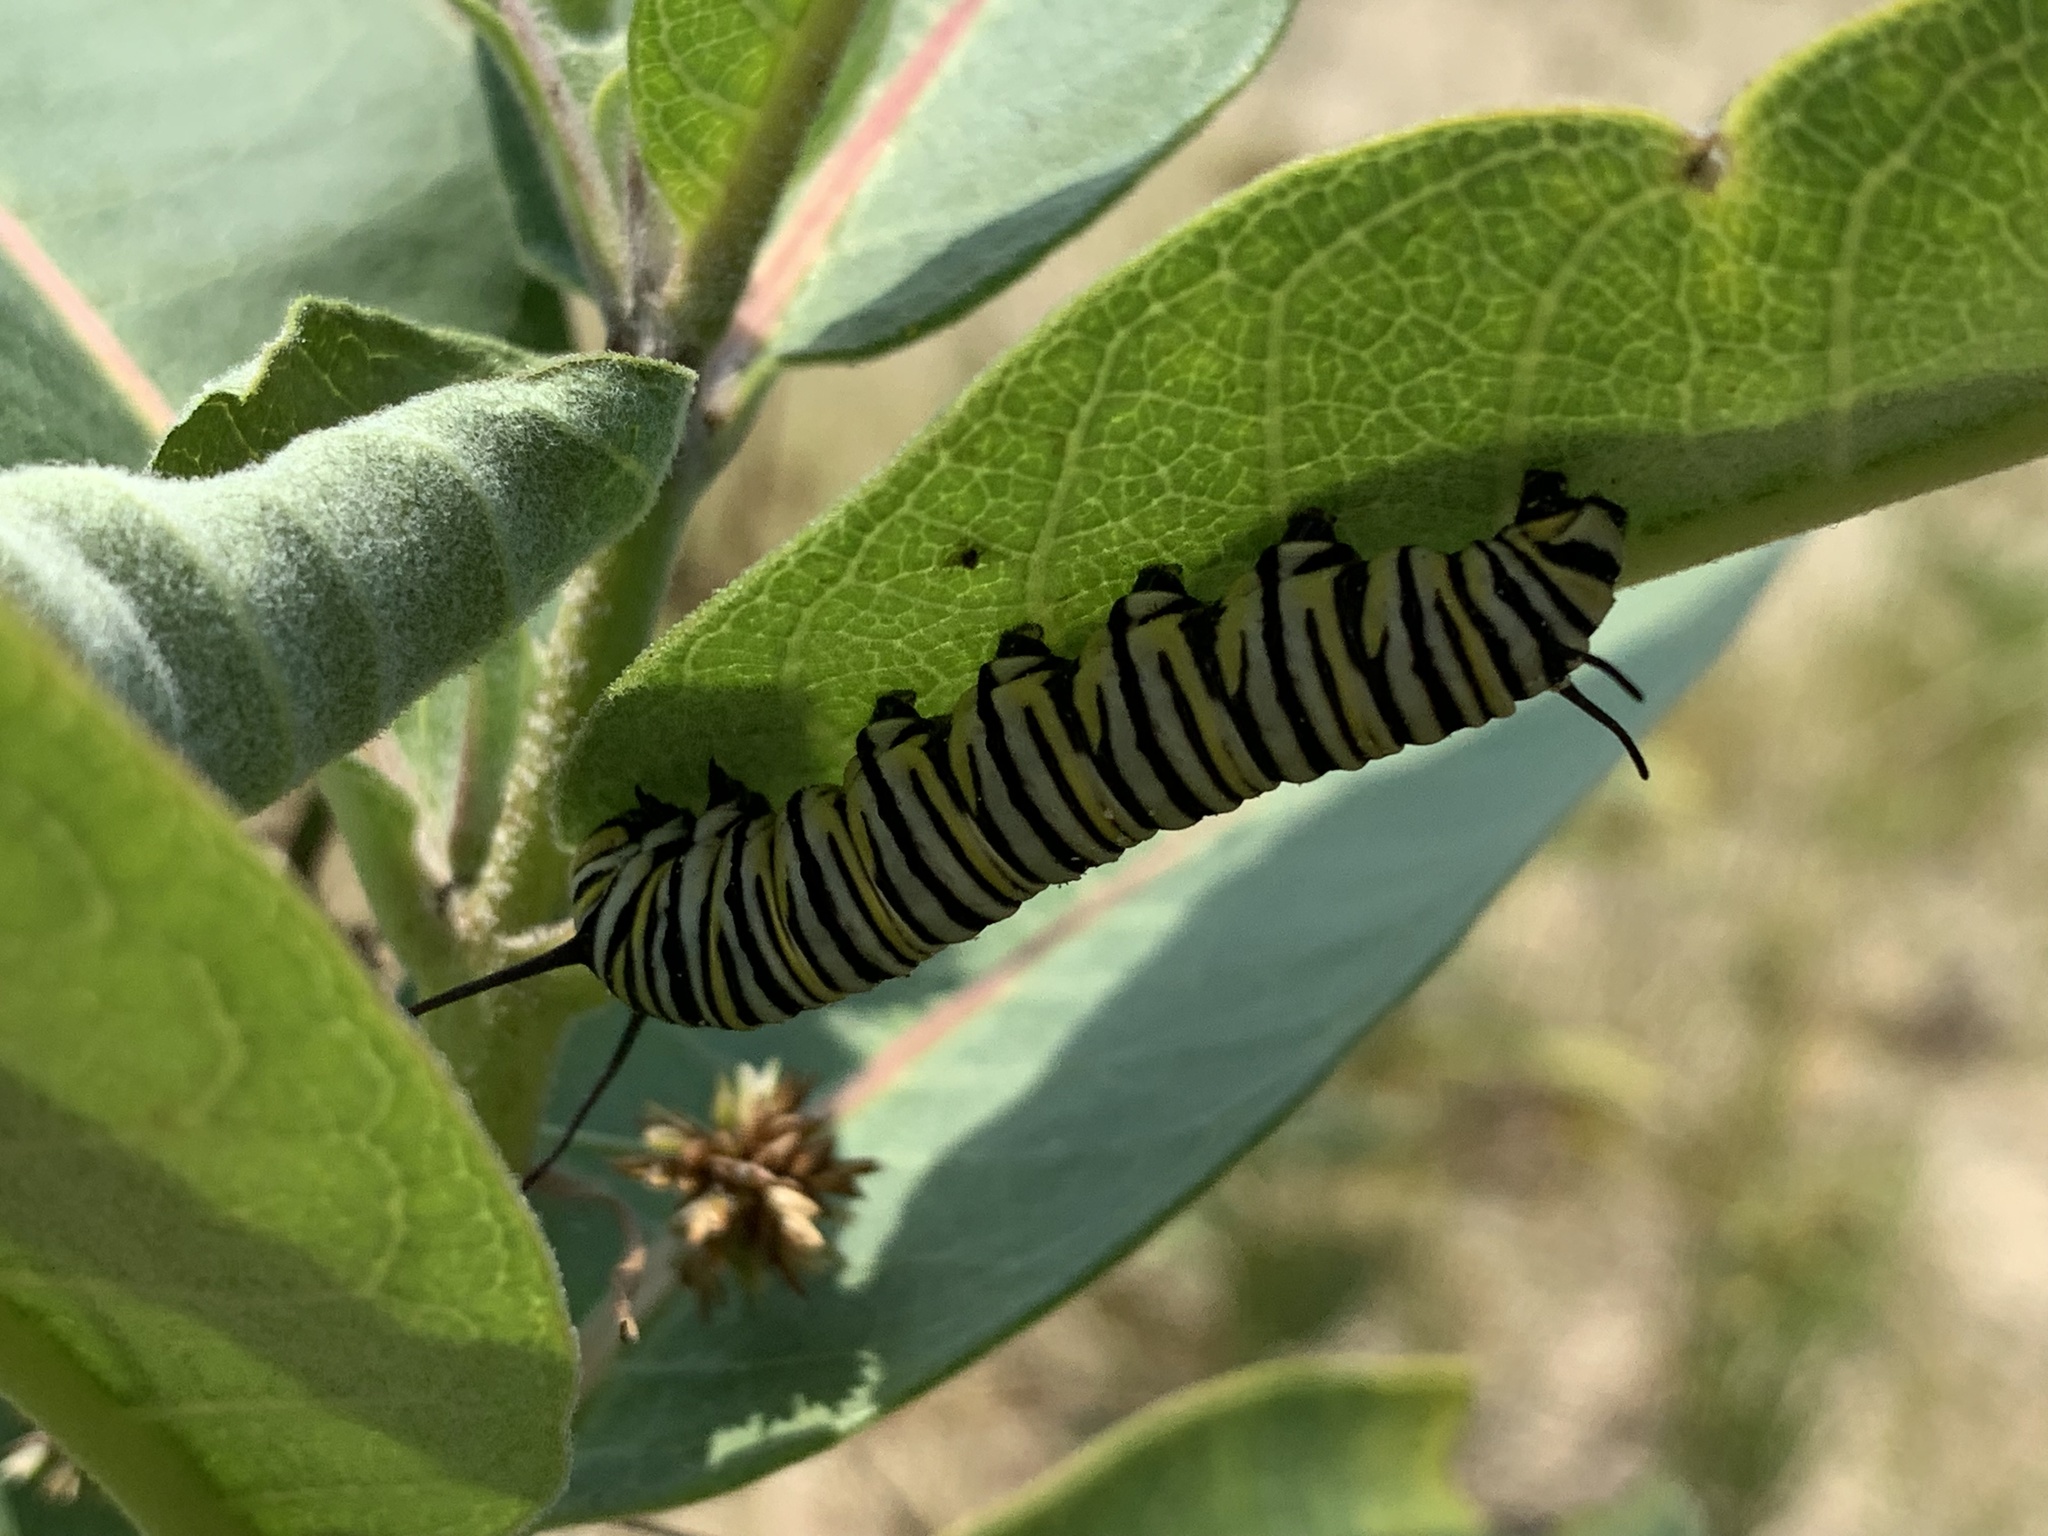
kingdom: Animalia
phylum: Arthropoda
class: Insecta
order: Lepidoptera
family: Nymphalidae
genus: Danaus
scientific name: Danaus plexippus
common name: Monarch
